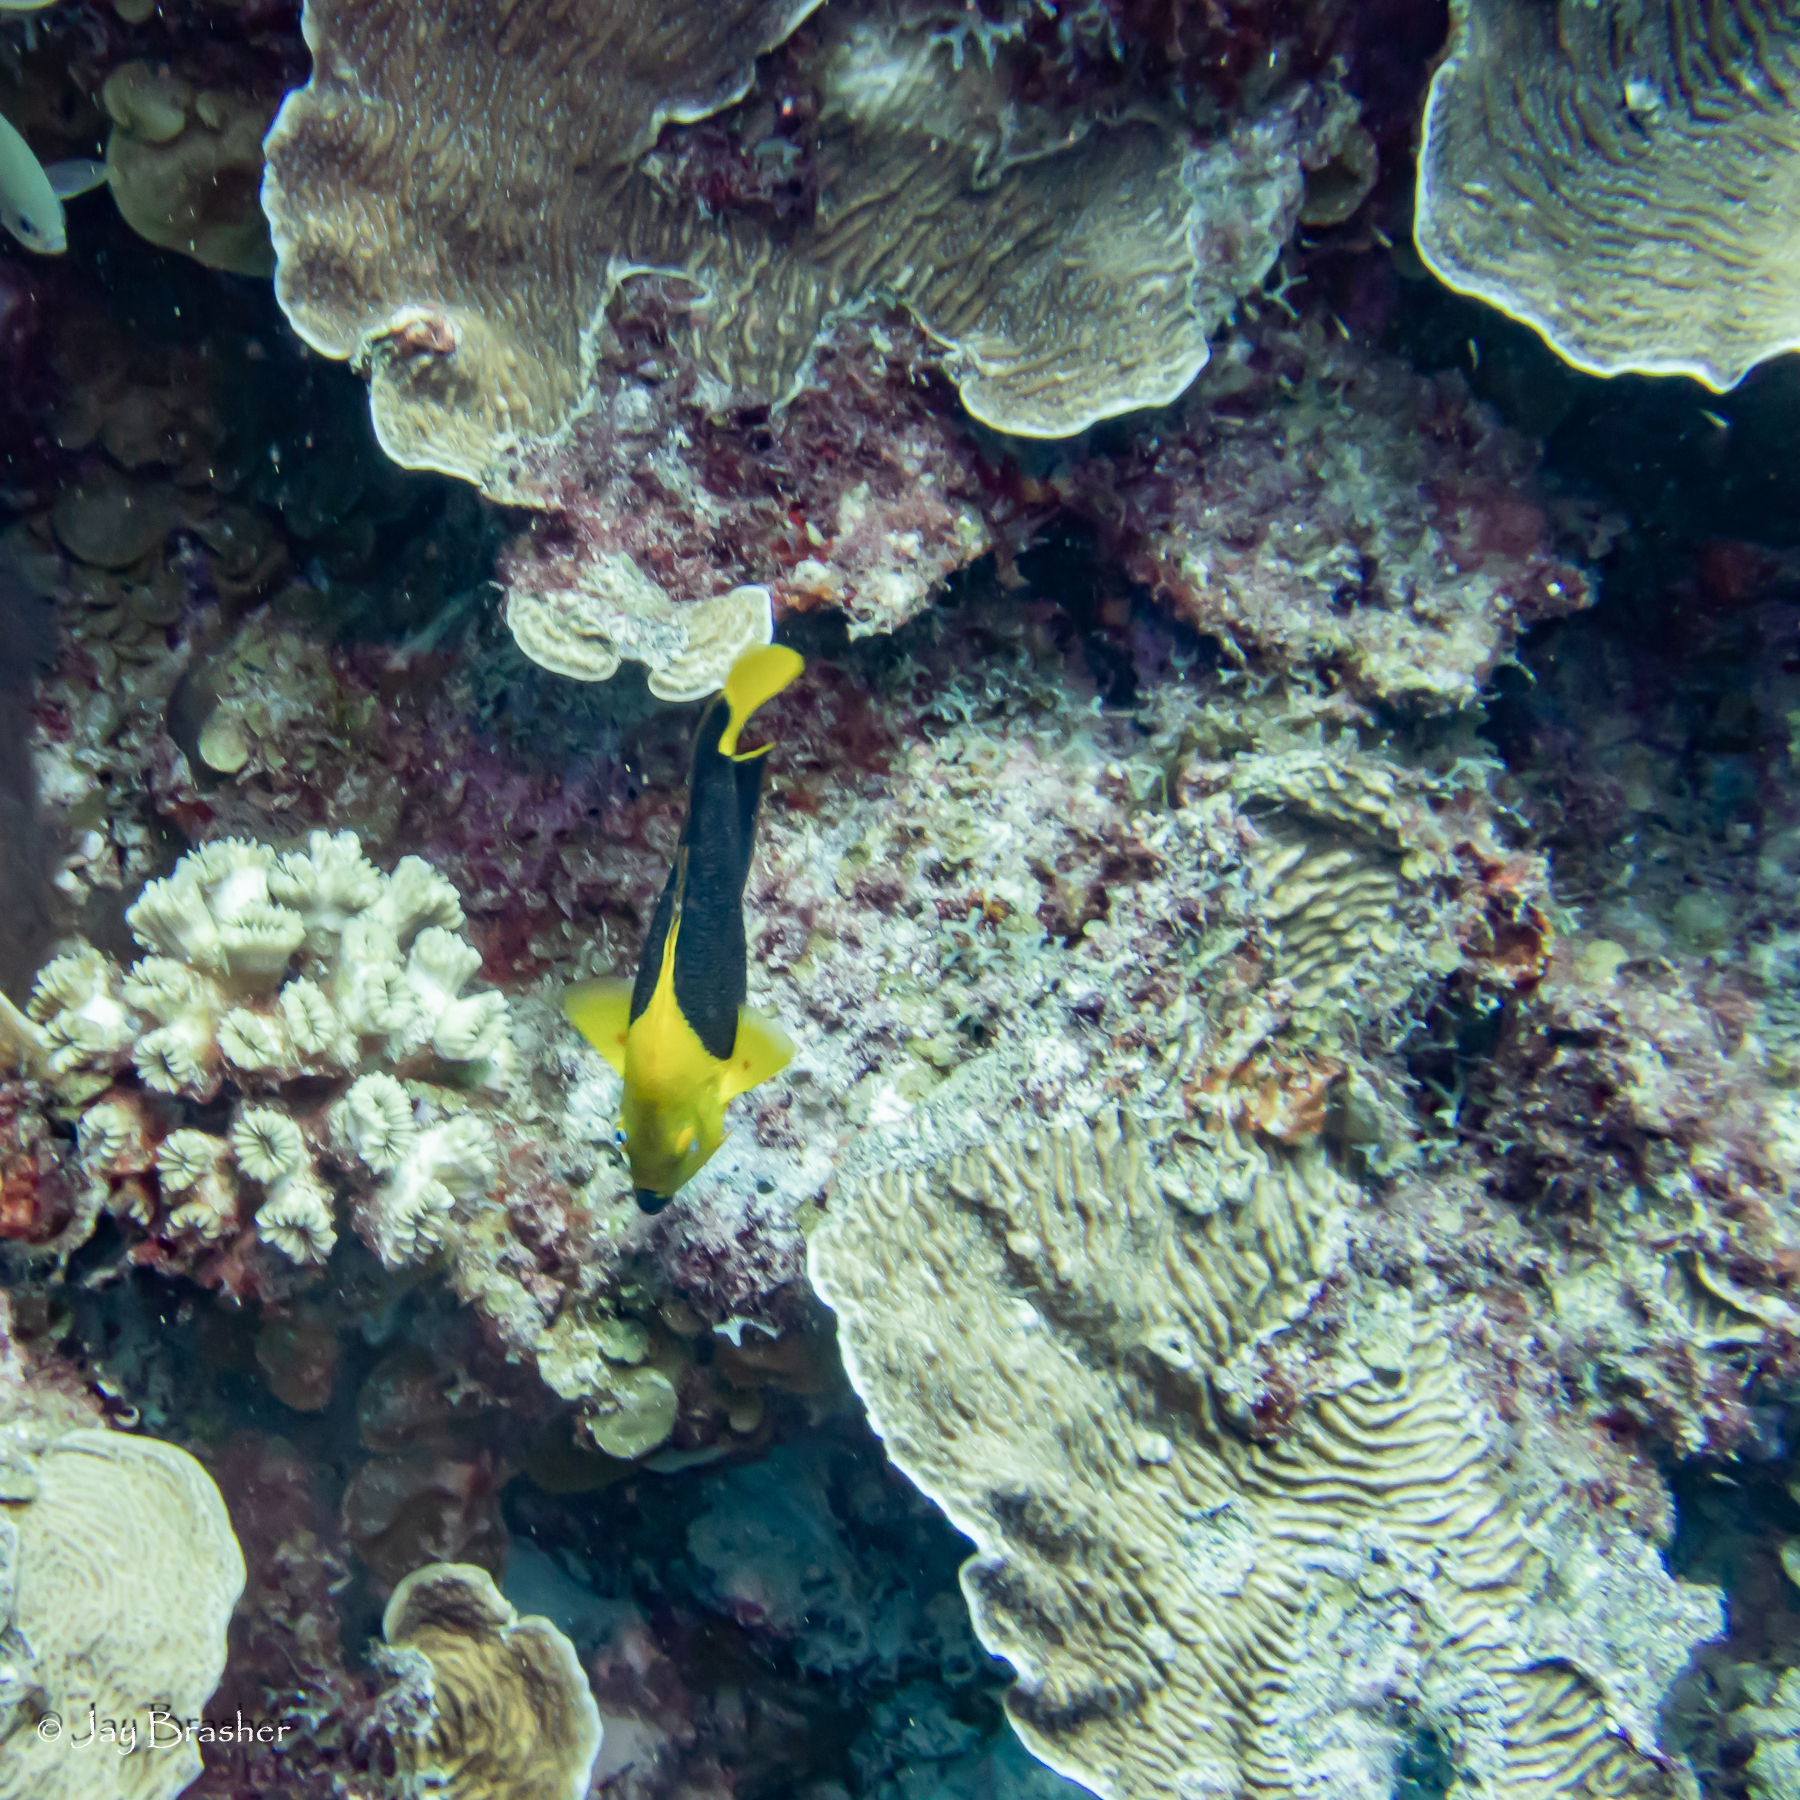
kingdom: Animalia
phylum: Chordata
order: Perciformes
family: Pomacanthidae
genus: Holacanthus
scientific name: Holacanthus tricolor
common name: Rock beauty
